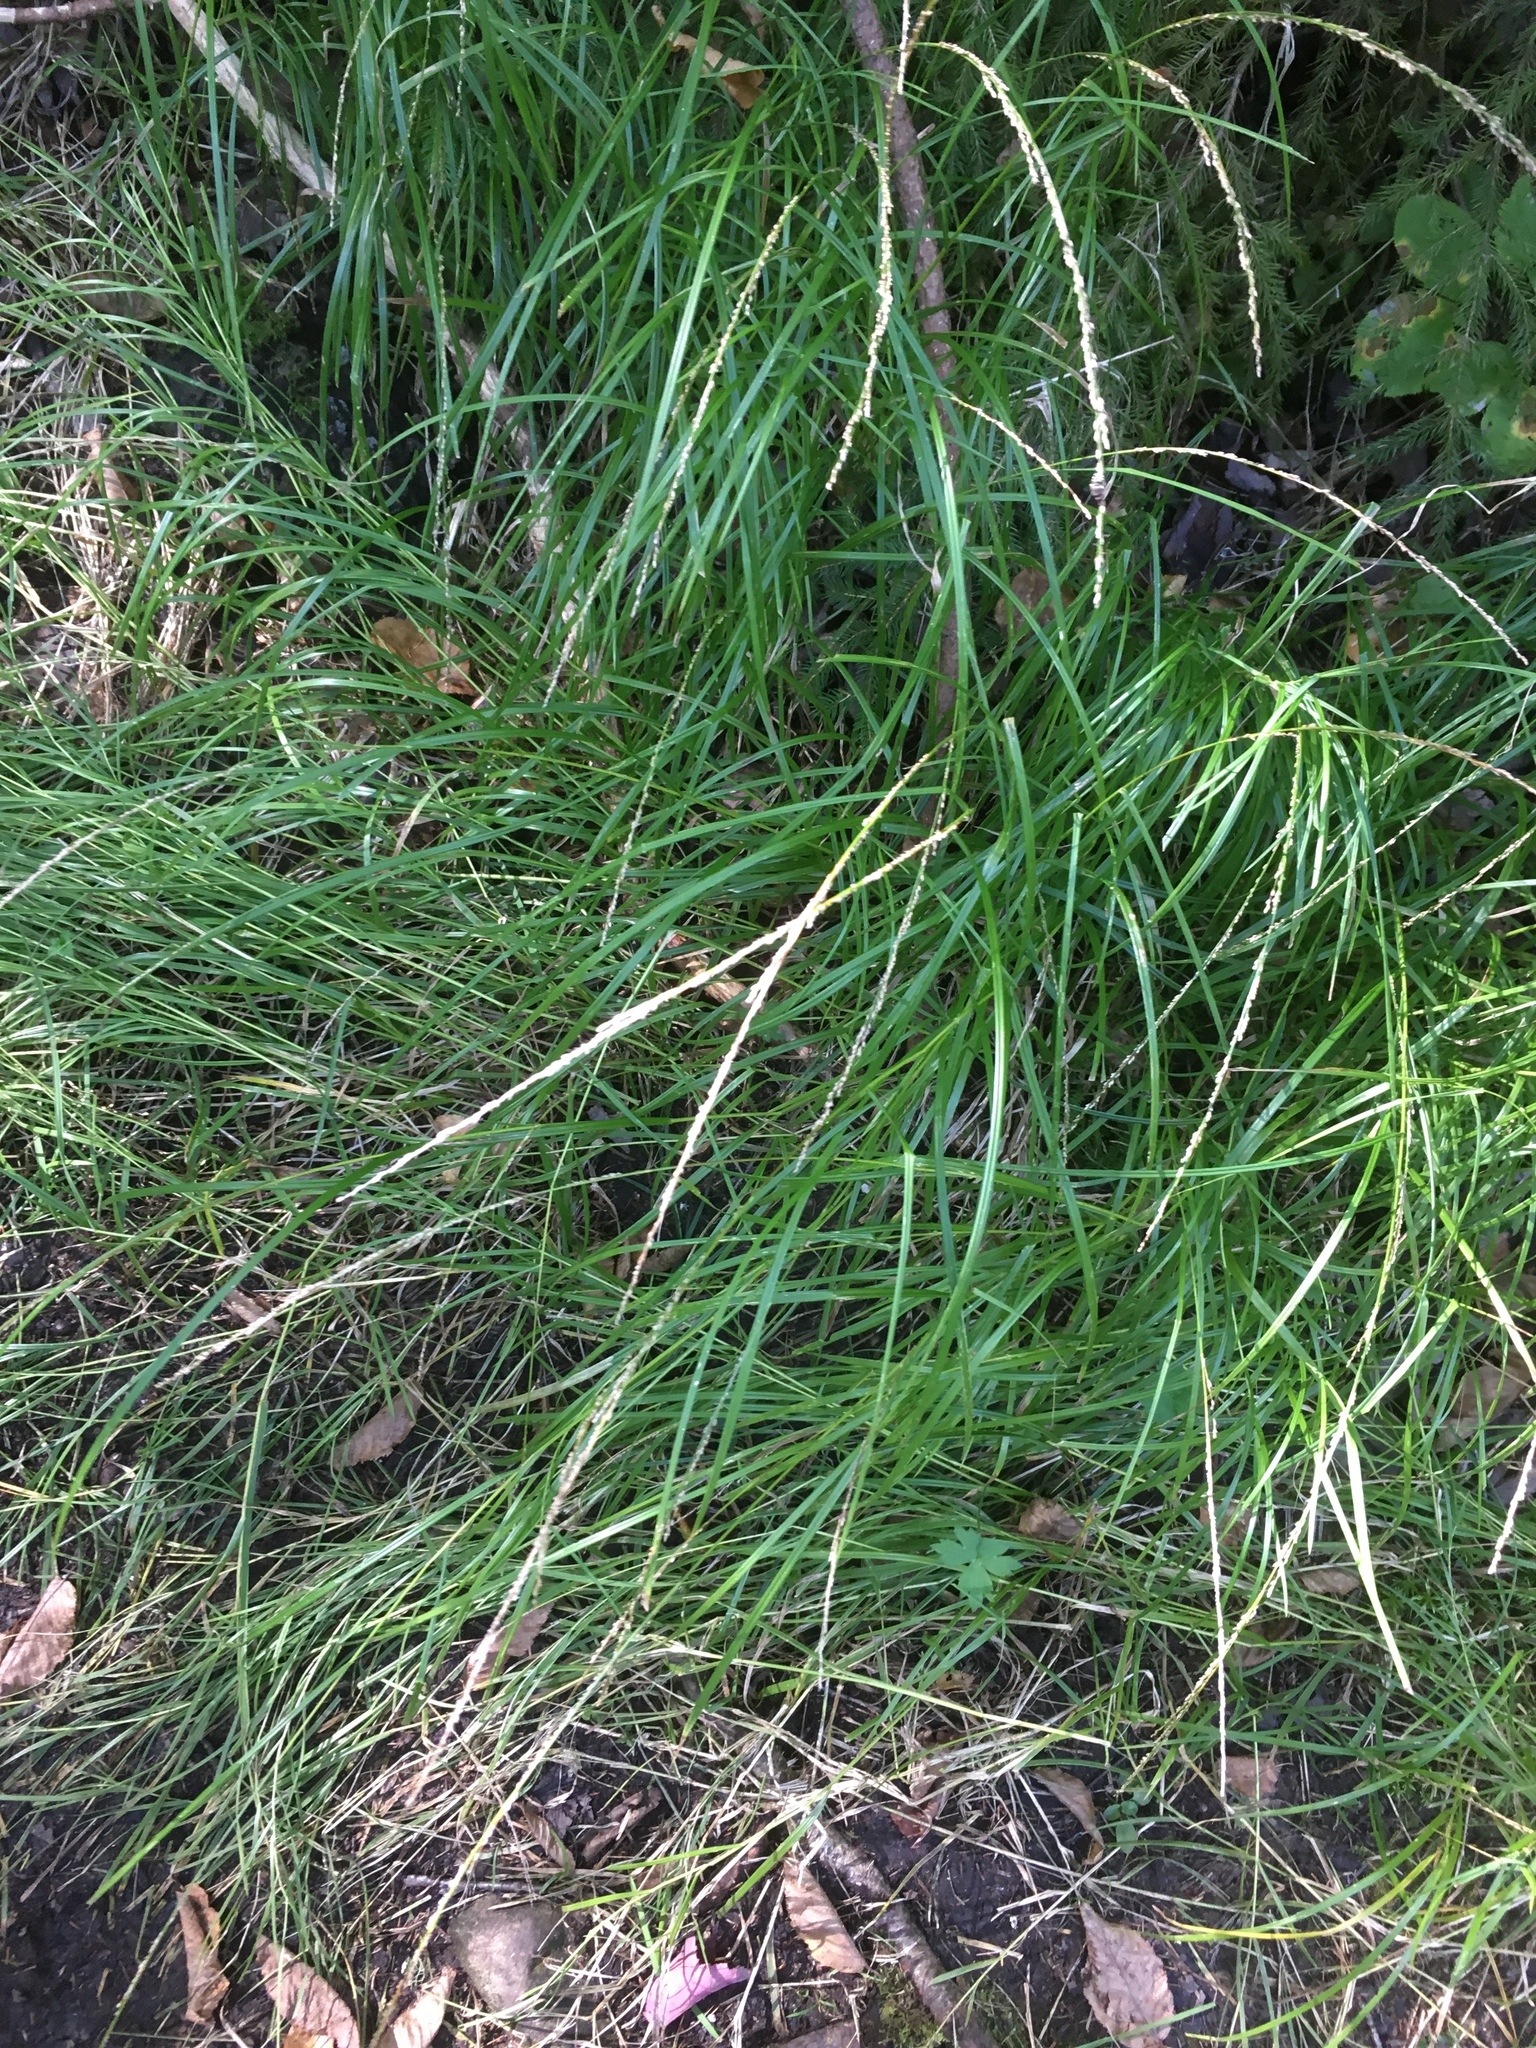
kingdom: Plantae
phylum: Tracheophyta
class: Liliopsida
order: Poales
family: Poaceae
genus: Glyceria
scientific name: Glyceria melicaria
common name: Long mannagrass
